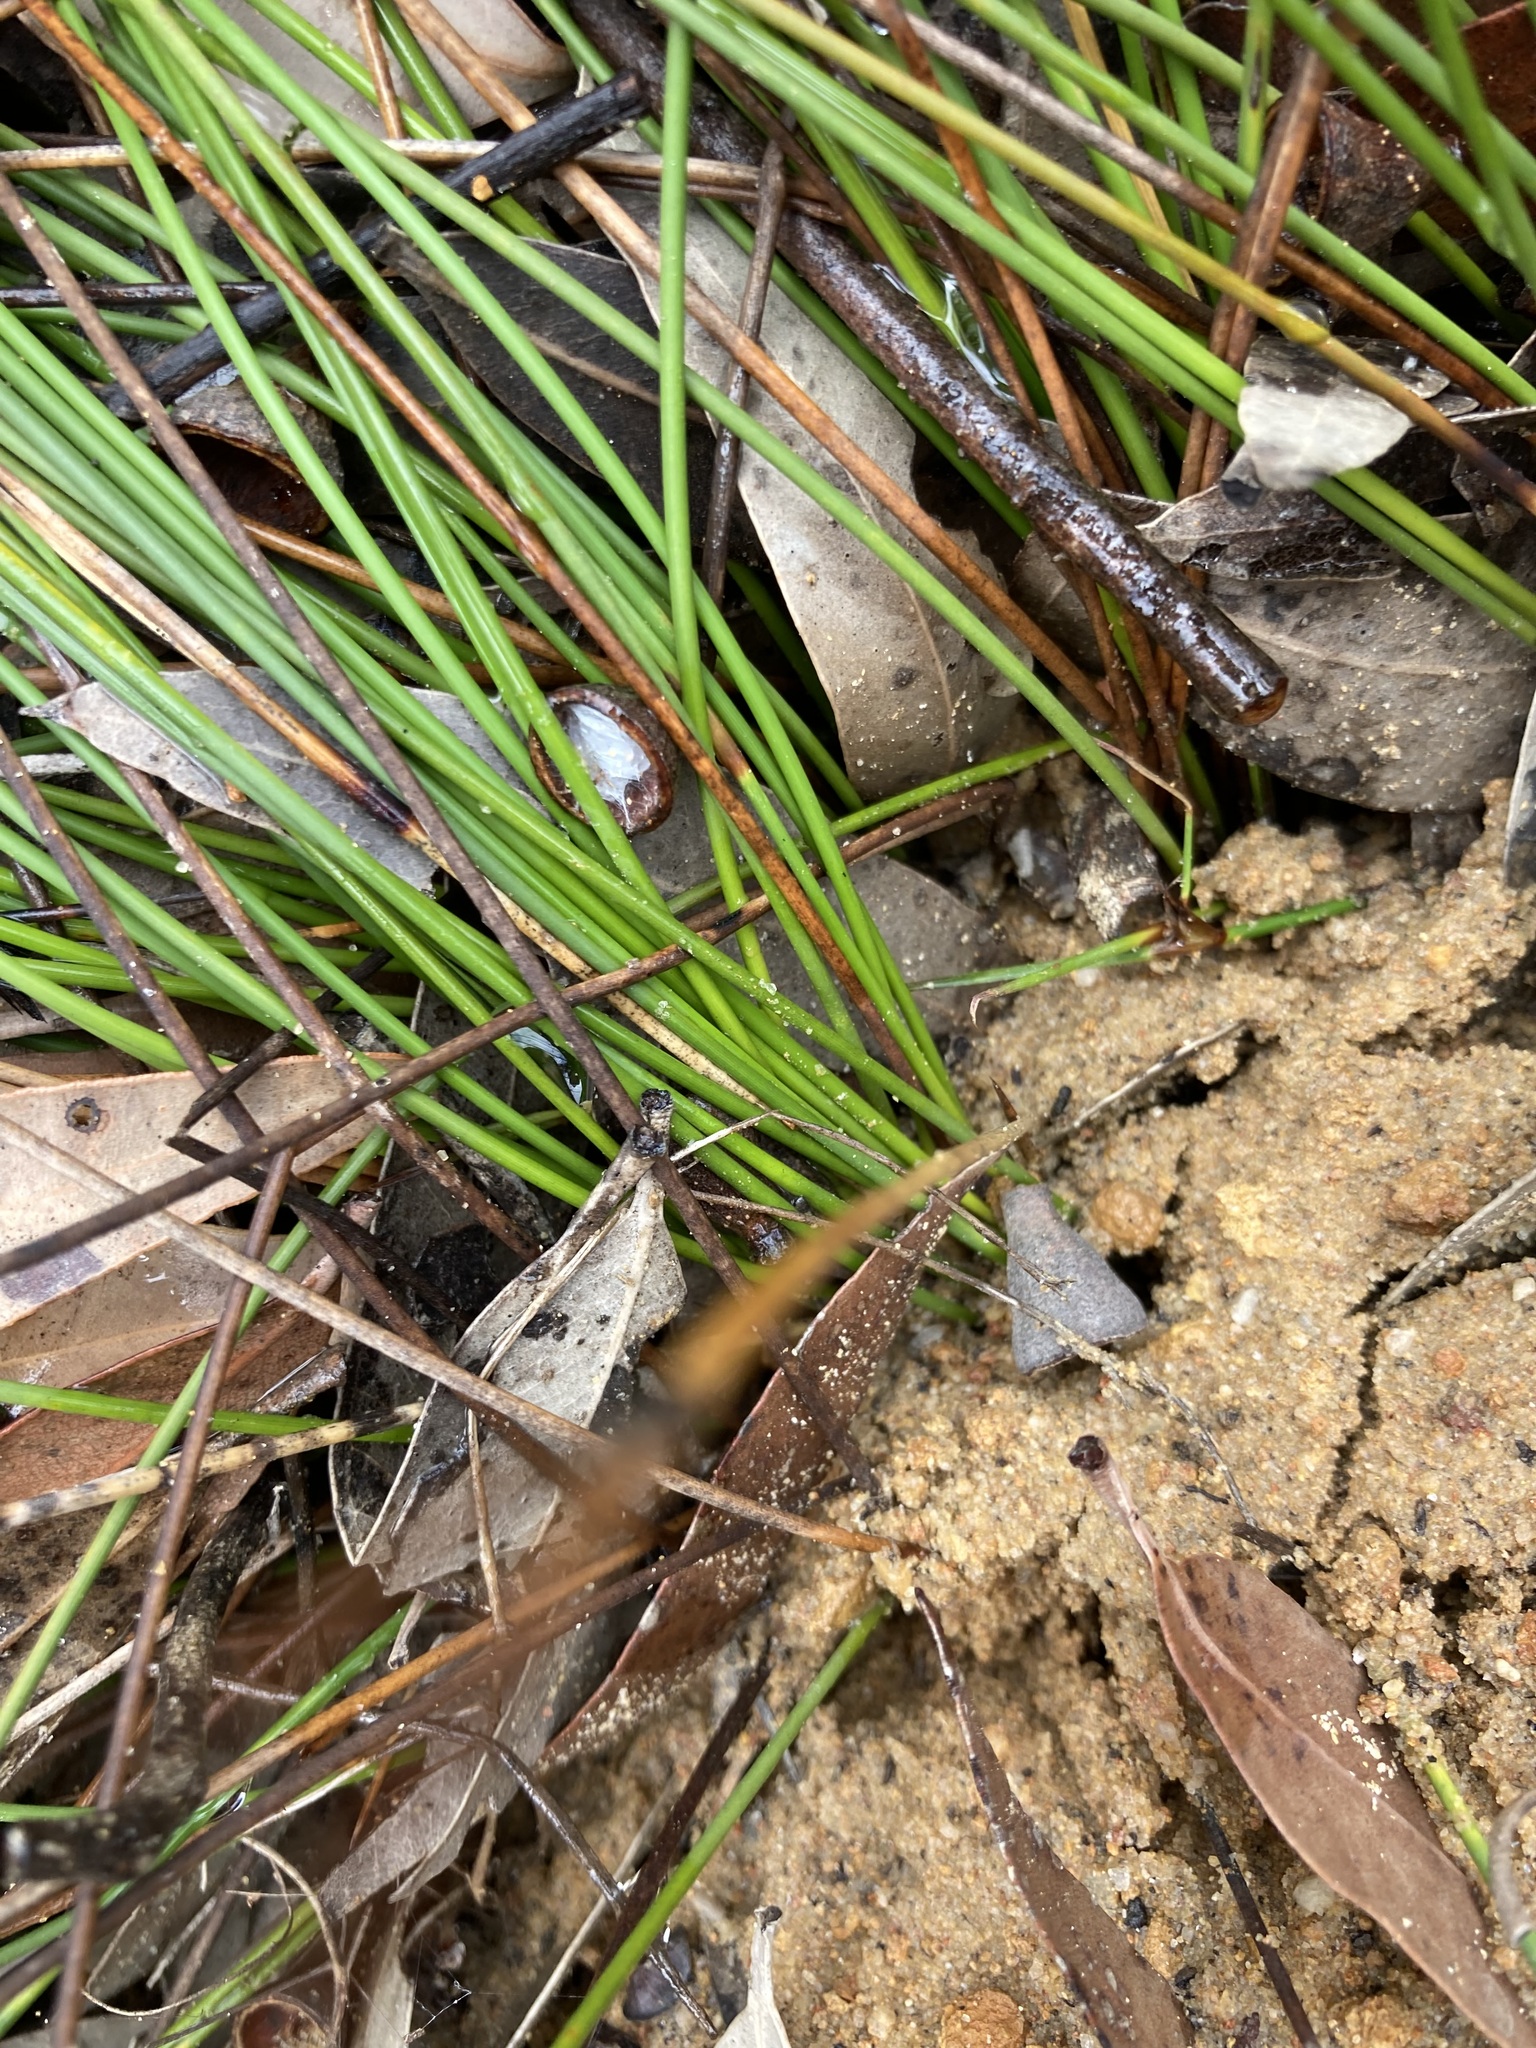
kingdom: Plantae
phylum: Tracheophyta
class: Liliopsida
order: Poales
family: Cyperaceae
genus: Mesomelaena
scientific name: Mesomelaena pseudostygia
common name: Semaphore sedge
